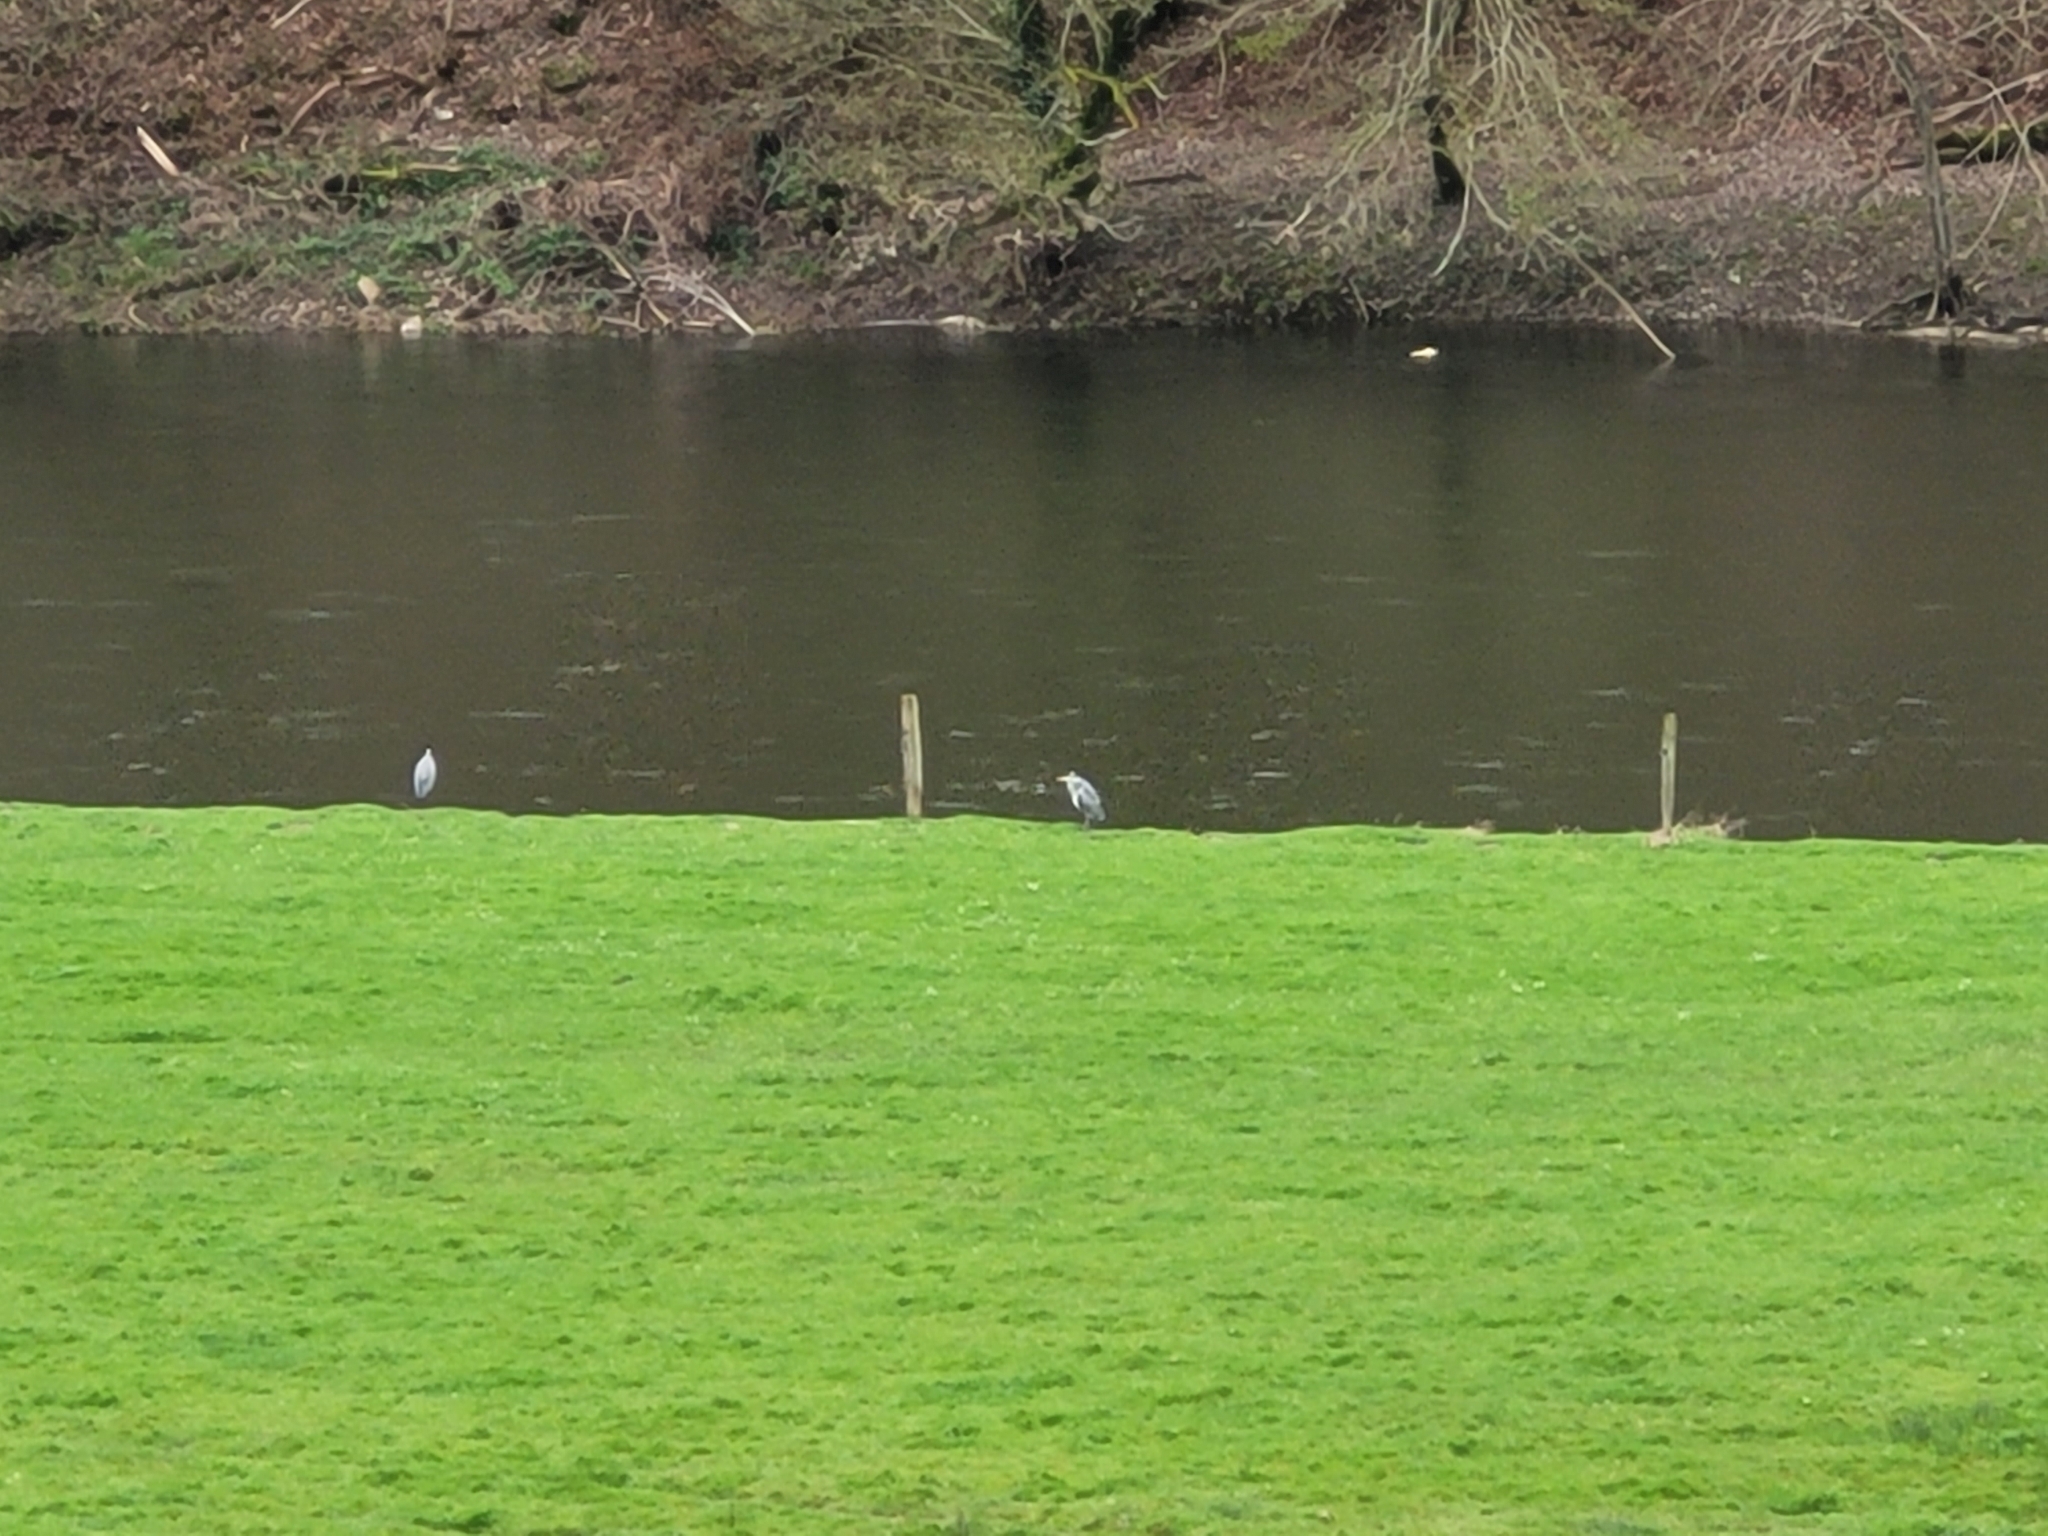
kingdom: Animalia
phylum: Chordata
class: Aves
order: Pelecaniformes
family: Ardeidae
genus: Ardea
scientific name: Ardea cinerea
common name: Grey heron
